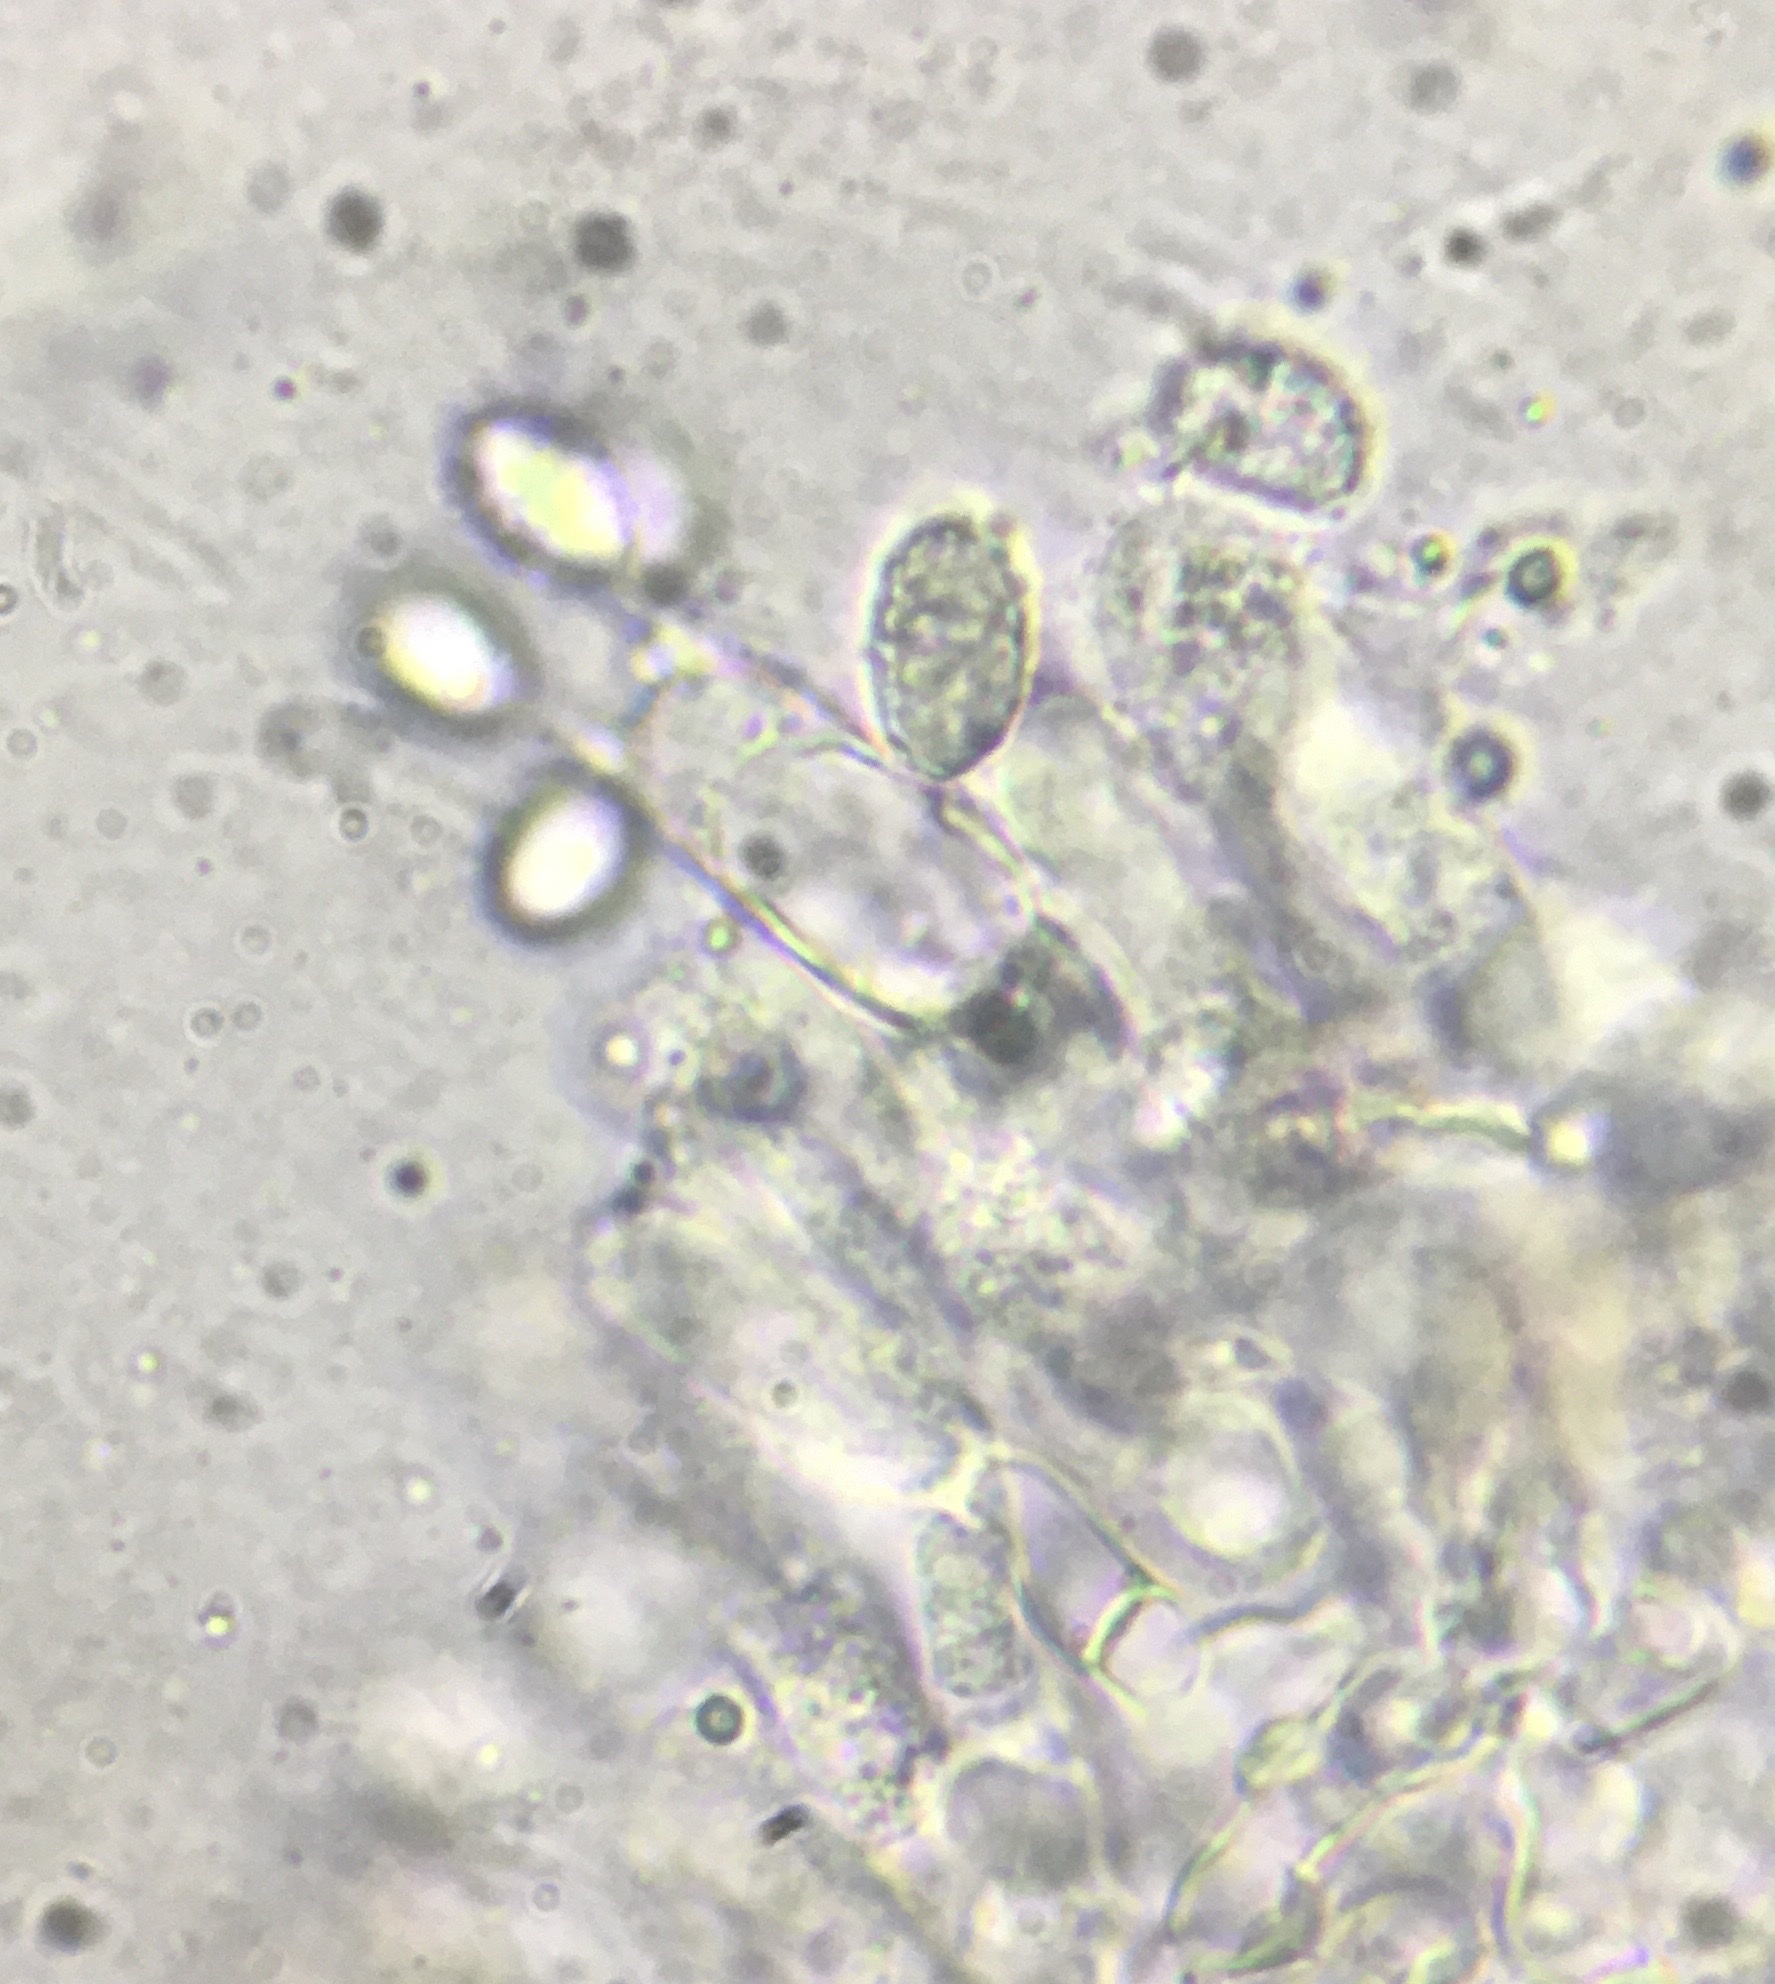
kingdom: Fungi
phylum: Basidiomycota
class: Agaricomycetes
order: Agaricales
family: Tricholomataceae
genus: Melanoleuca
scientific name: Melanoleuca polioleuca
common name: Common cavalier
